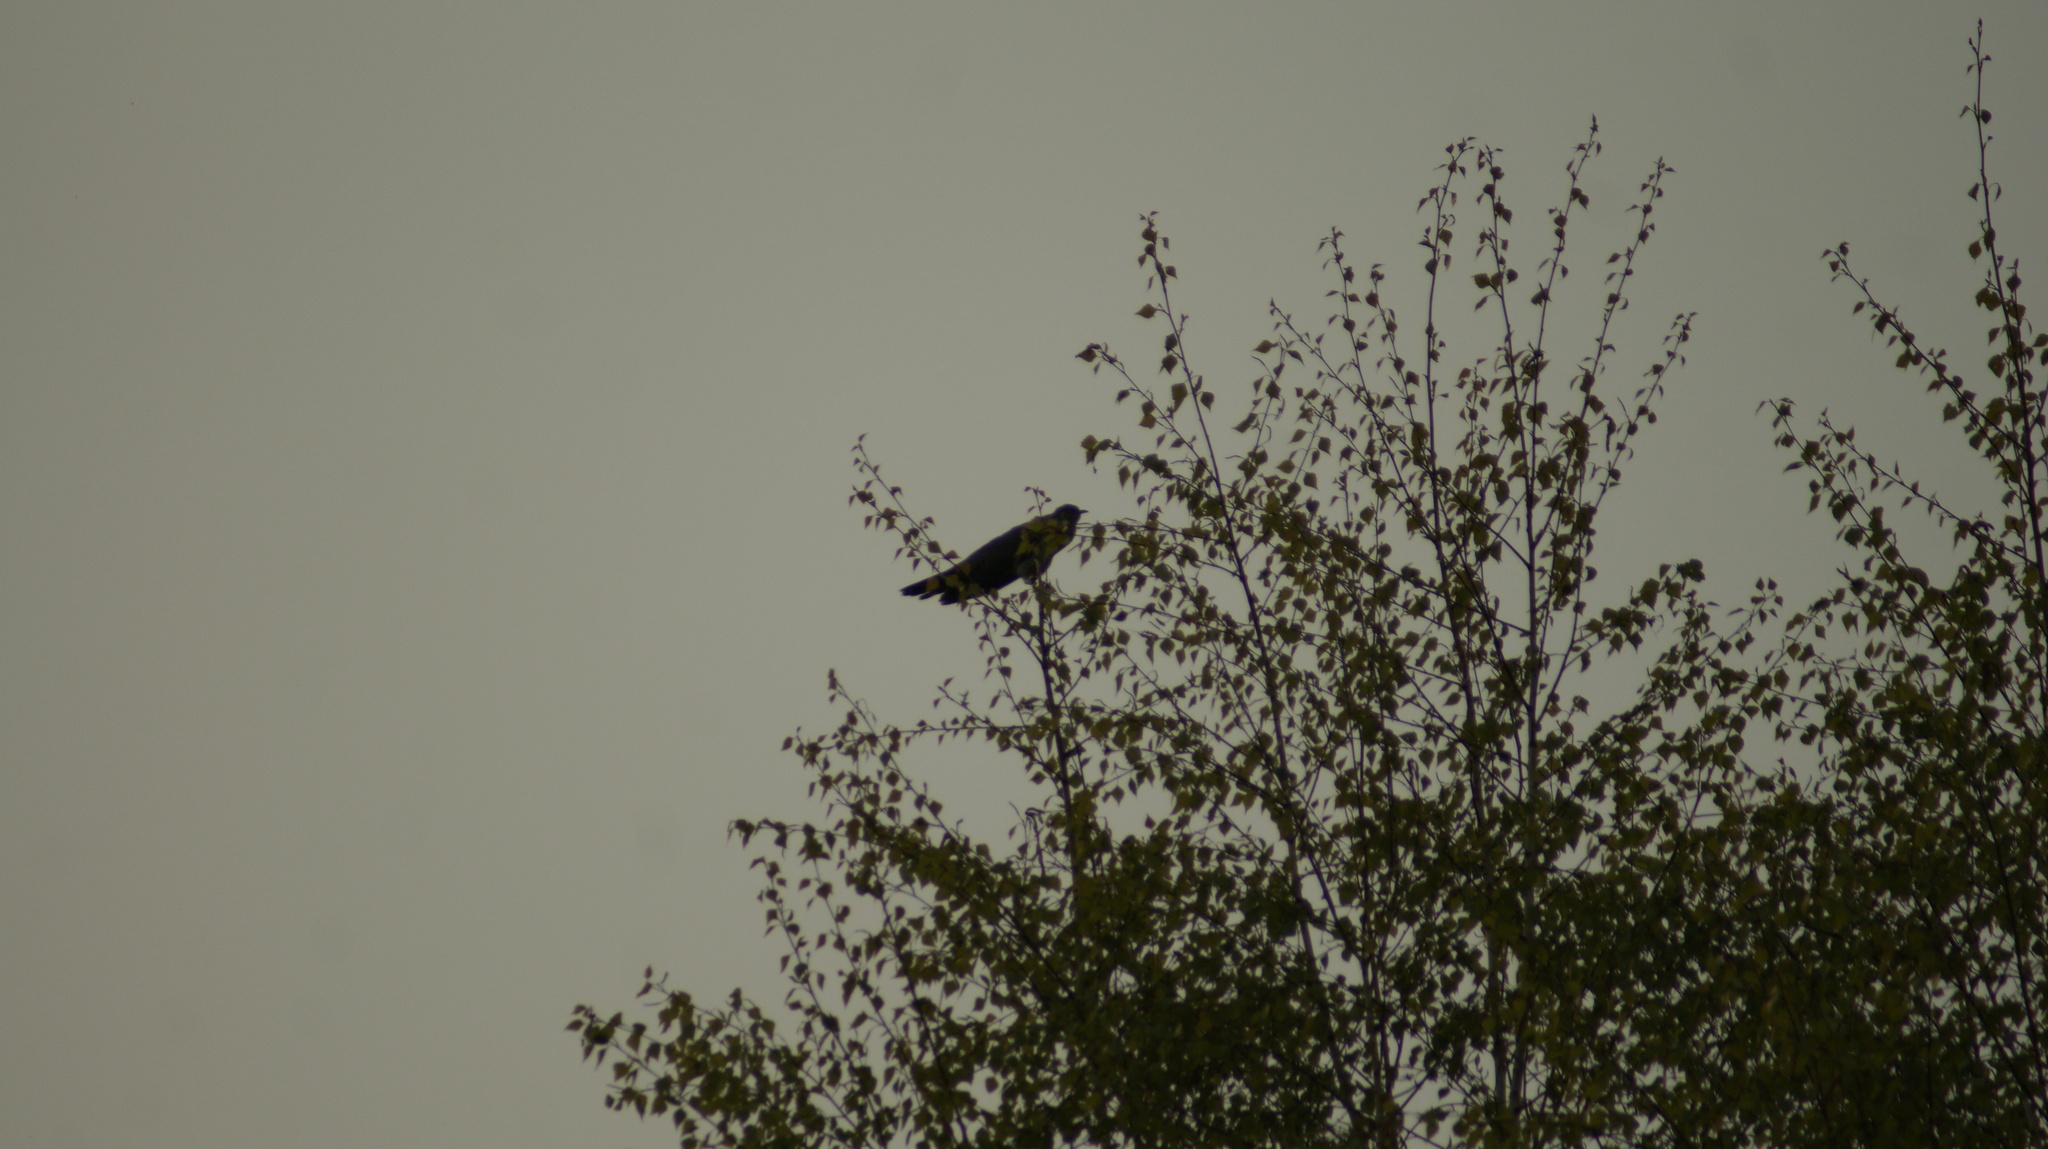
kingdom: Animalia
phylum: Chordata
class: Aves
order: Cuculiformes
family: Cuculidae
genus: Cuculus
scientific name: Cuculus canorus
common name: Common cuckoo
